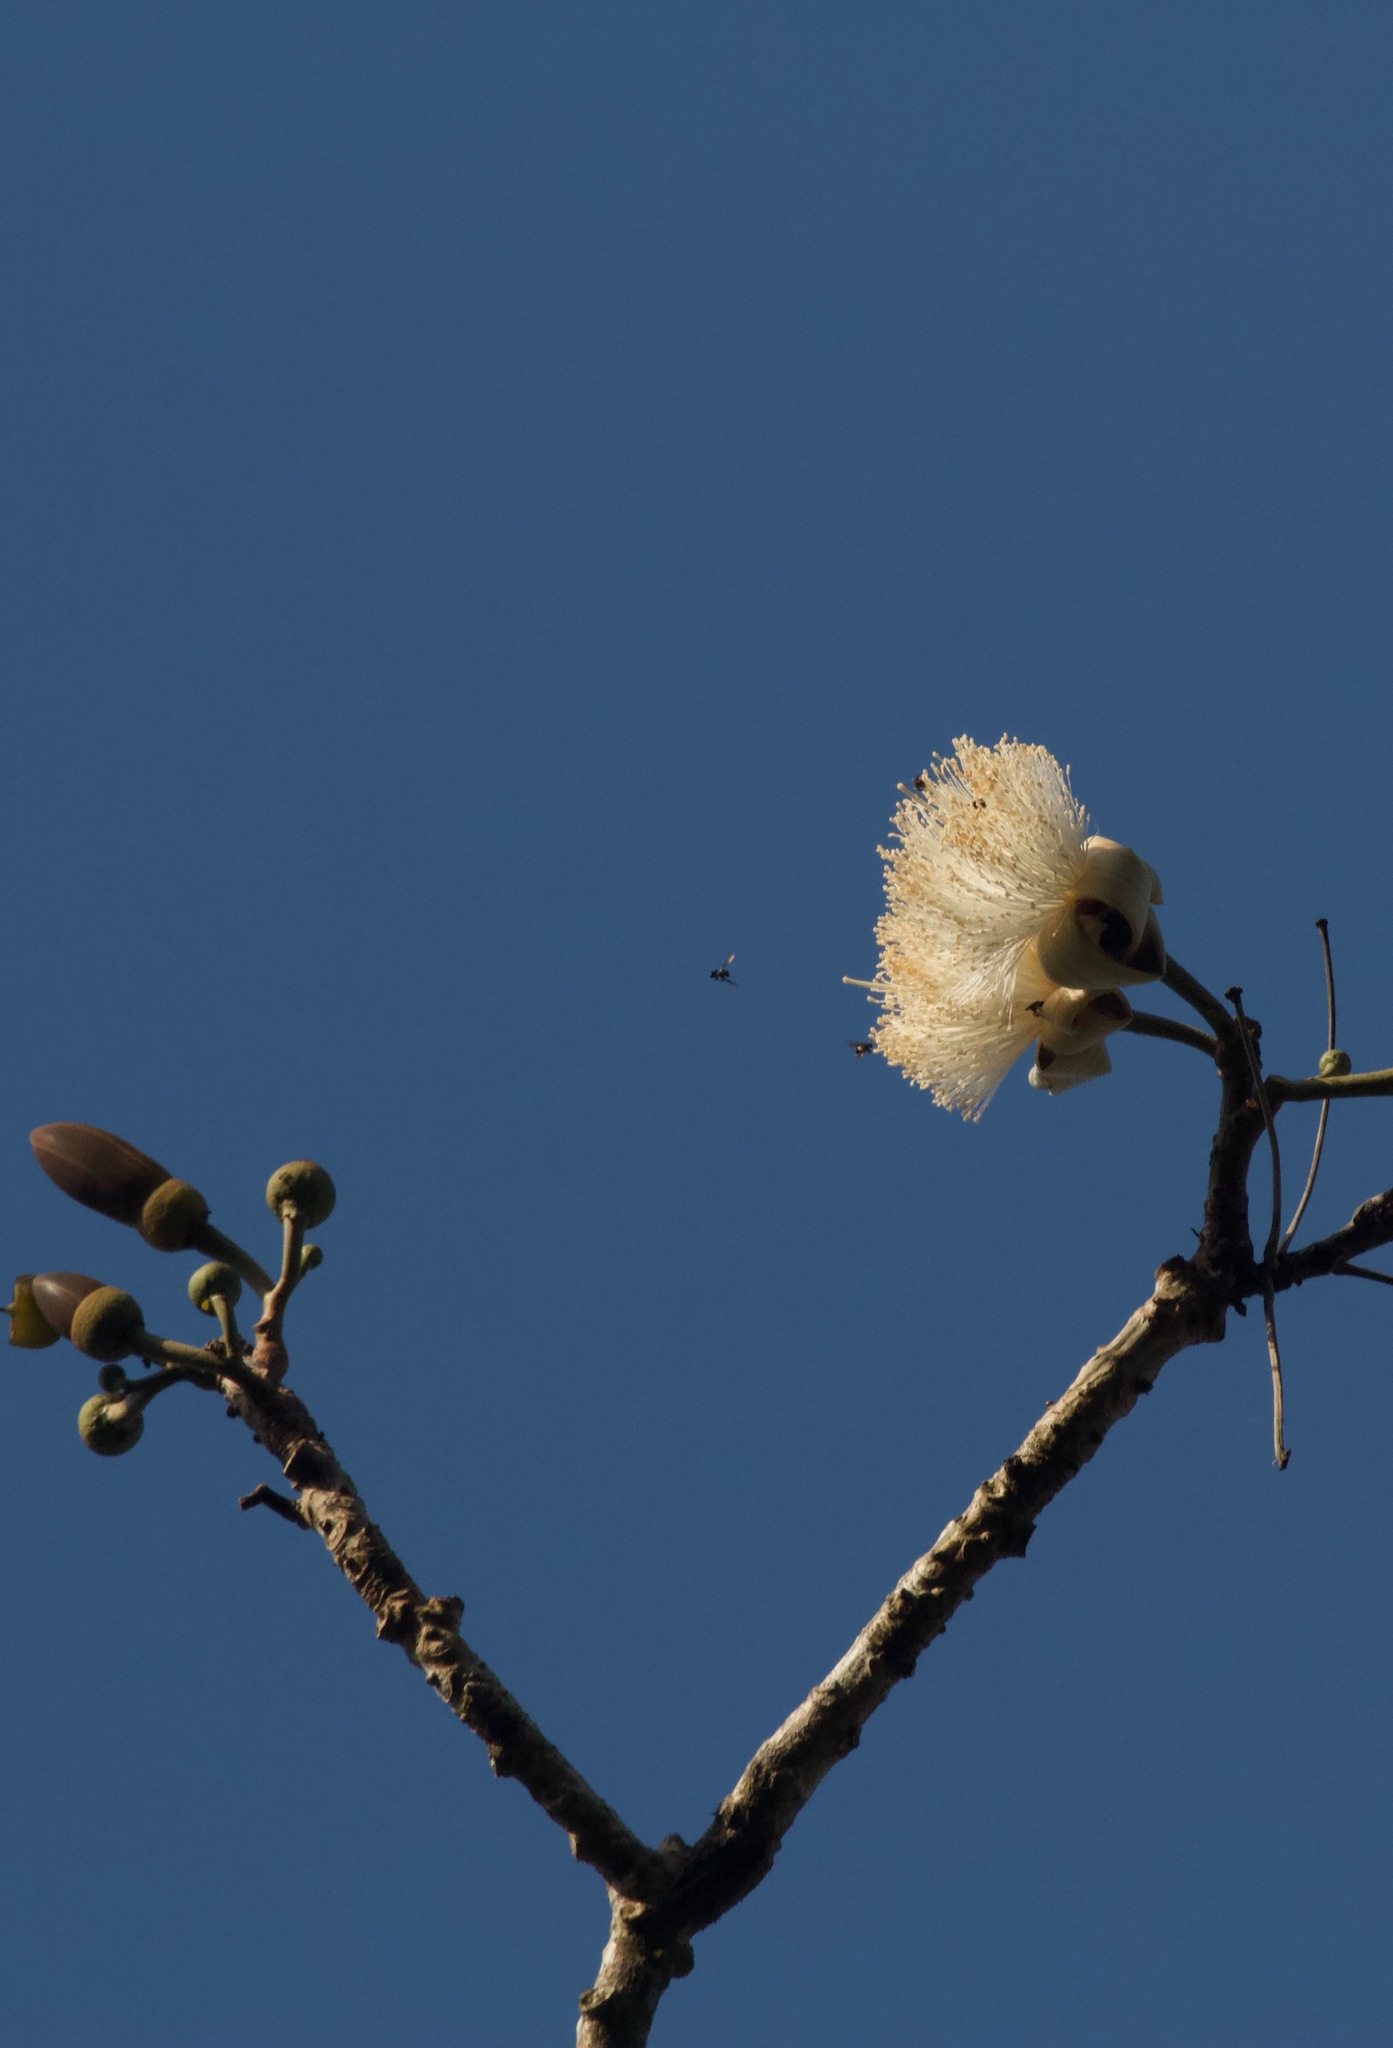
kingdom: Plantae
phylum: Tracheophyta
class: Magnoliopsida
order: Malvales
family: Malvaceae
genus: Pseudobombax
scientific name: Pseudobombax septenatum
